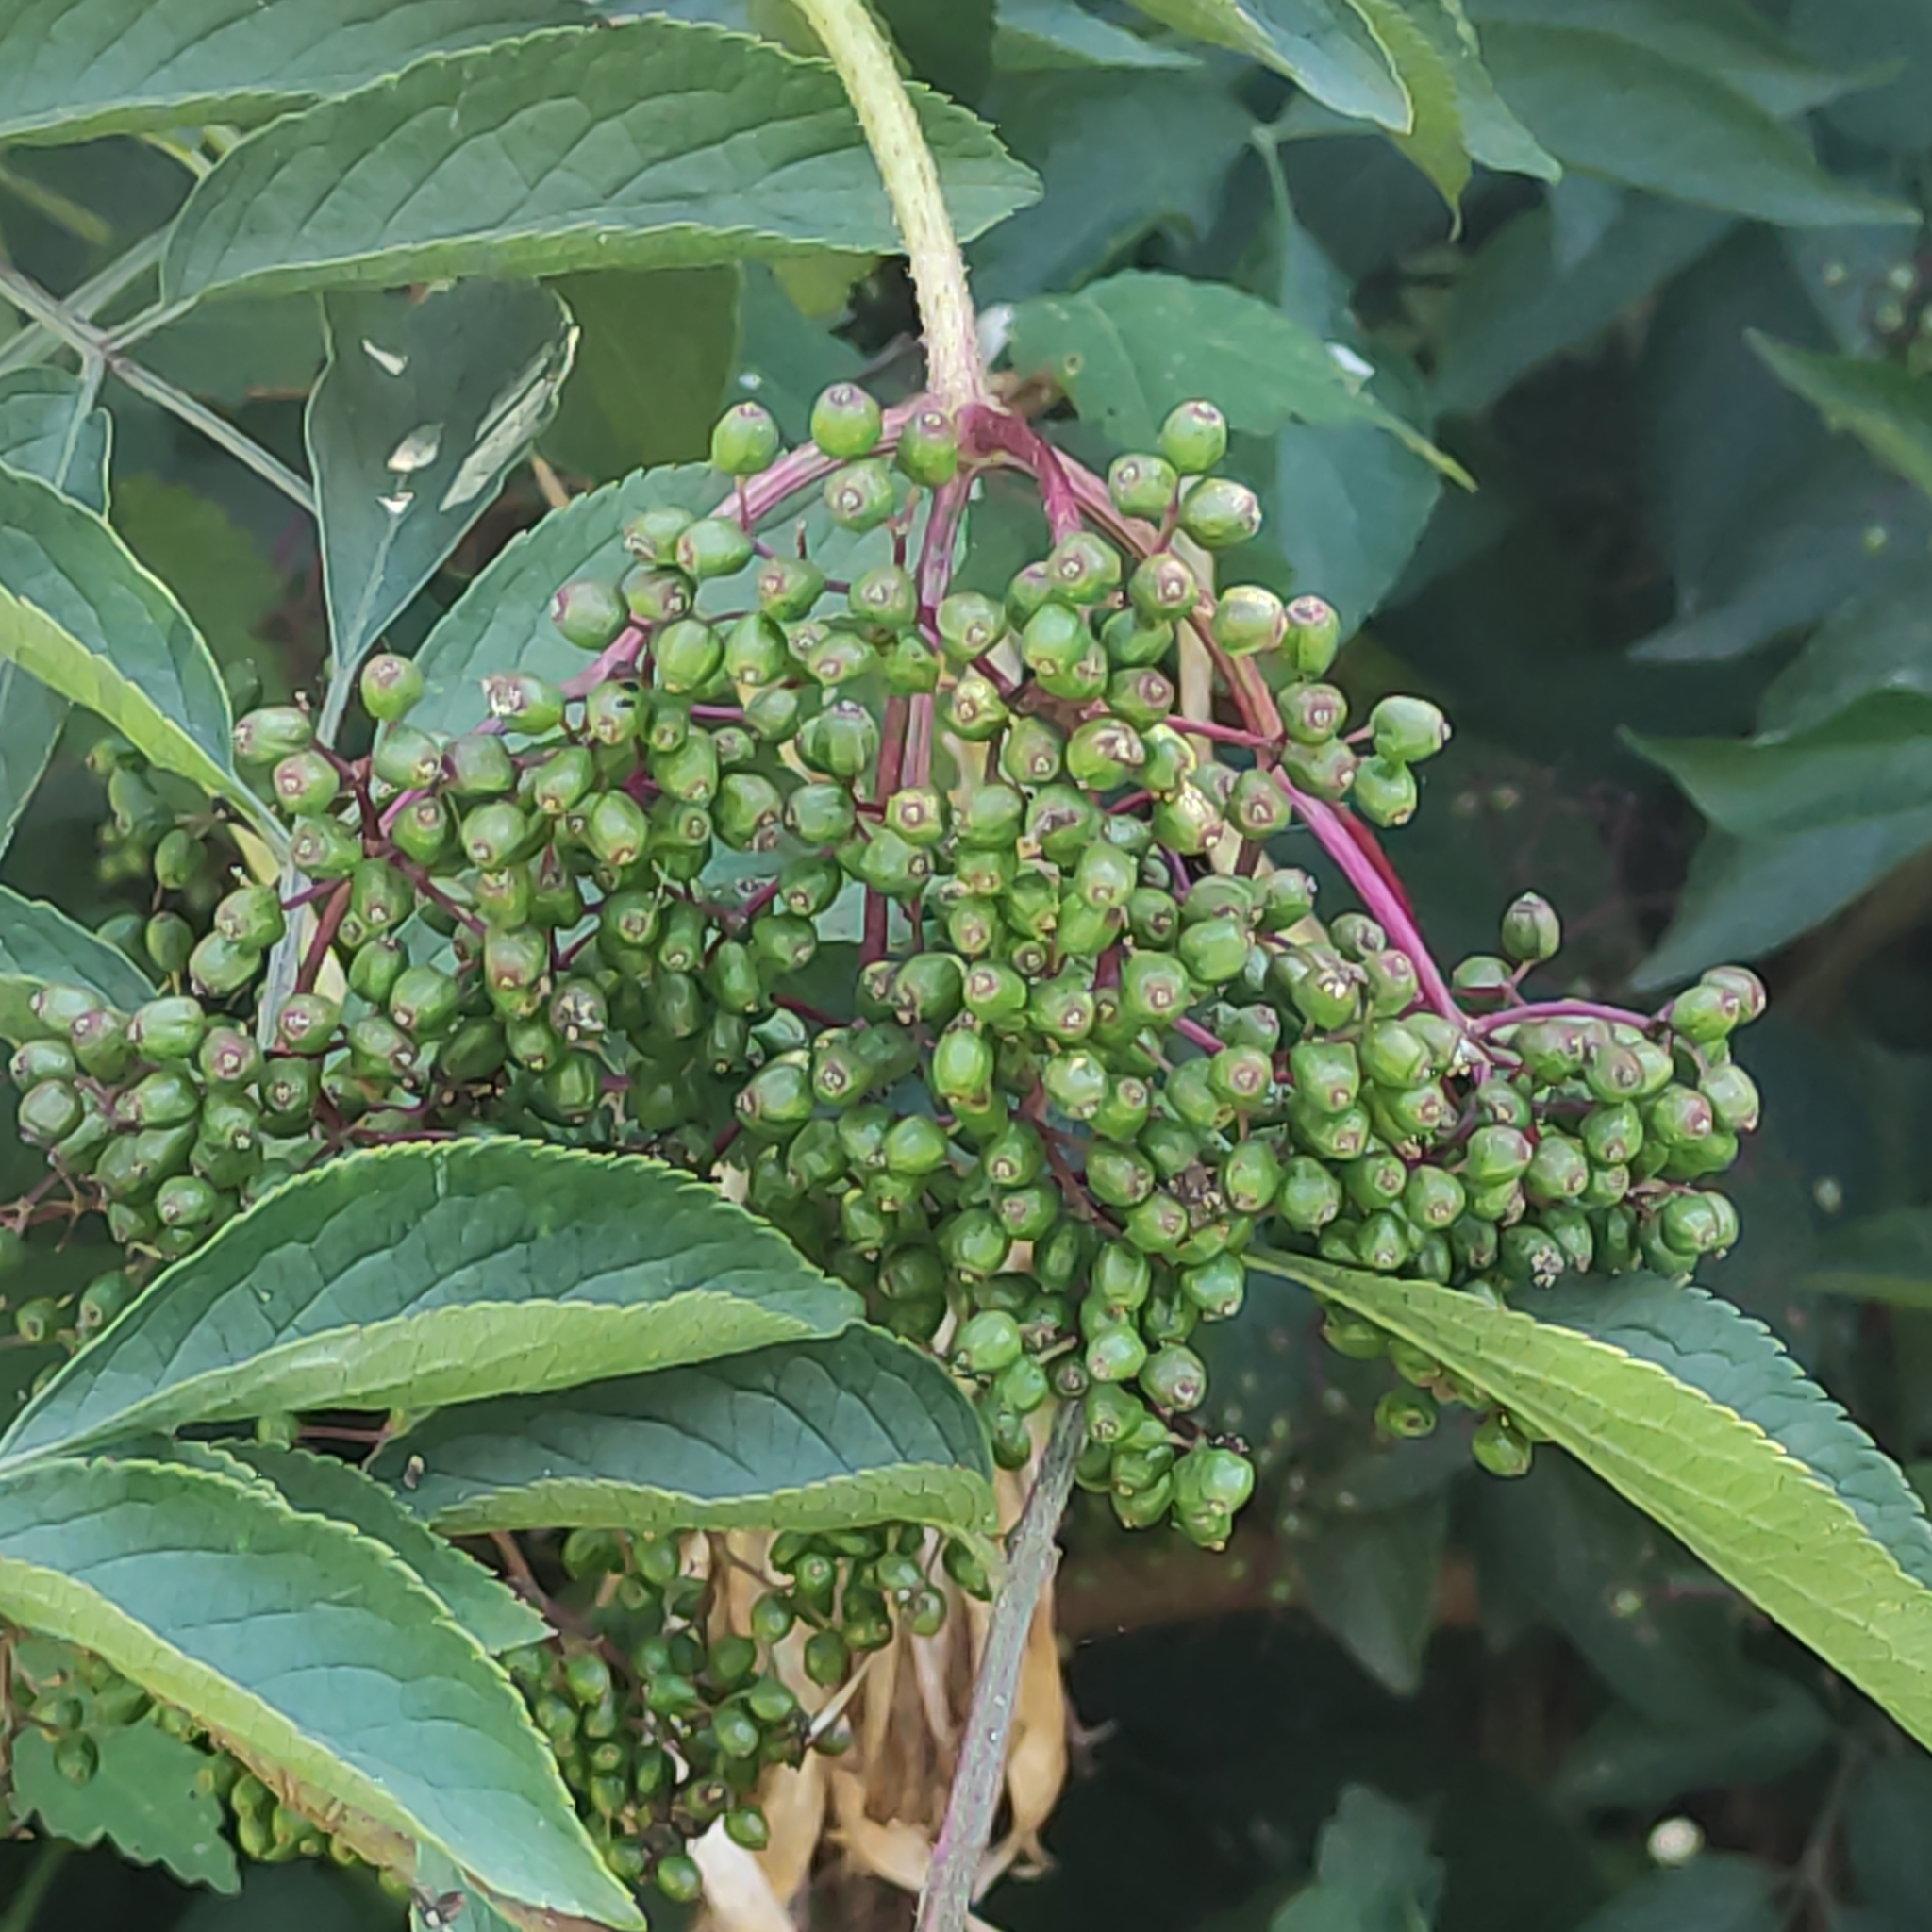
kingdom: Plantae
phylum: Tracheophyta
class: Magnoliopsida
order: Dipsacales
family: Viburnaceae
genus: Sambucus
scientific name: Sambucus nigra
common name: Elder
